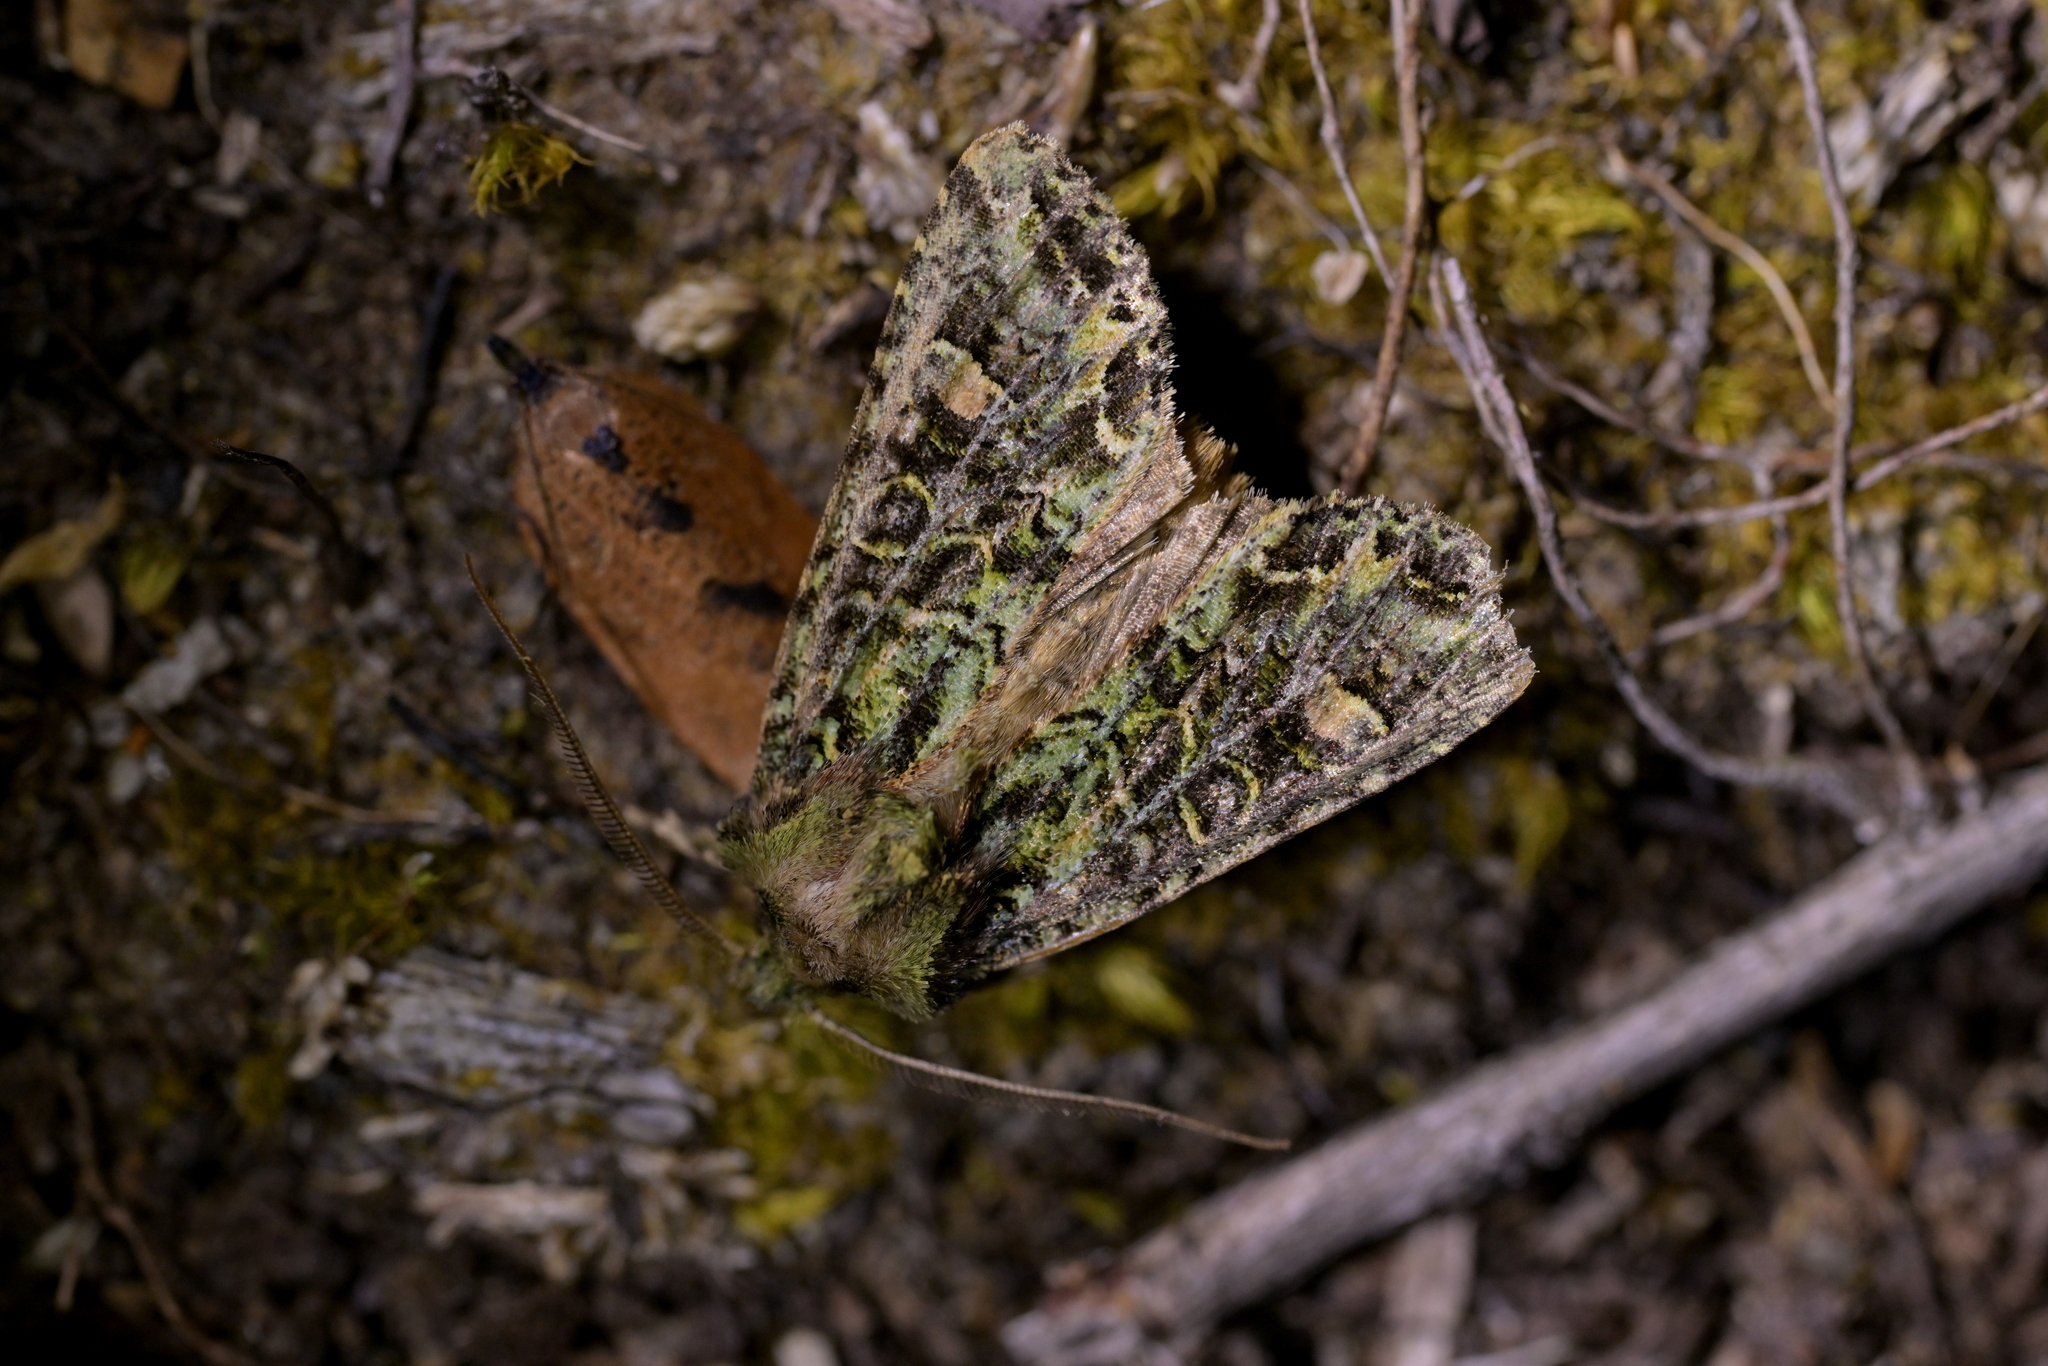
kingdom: Animalia
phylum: Arthropoda
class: Insecta
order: Lepidoptera
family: Noctuidae
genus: Ichneutica
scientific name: Ichneutica
